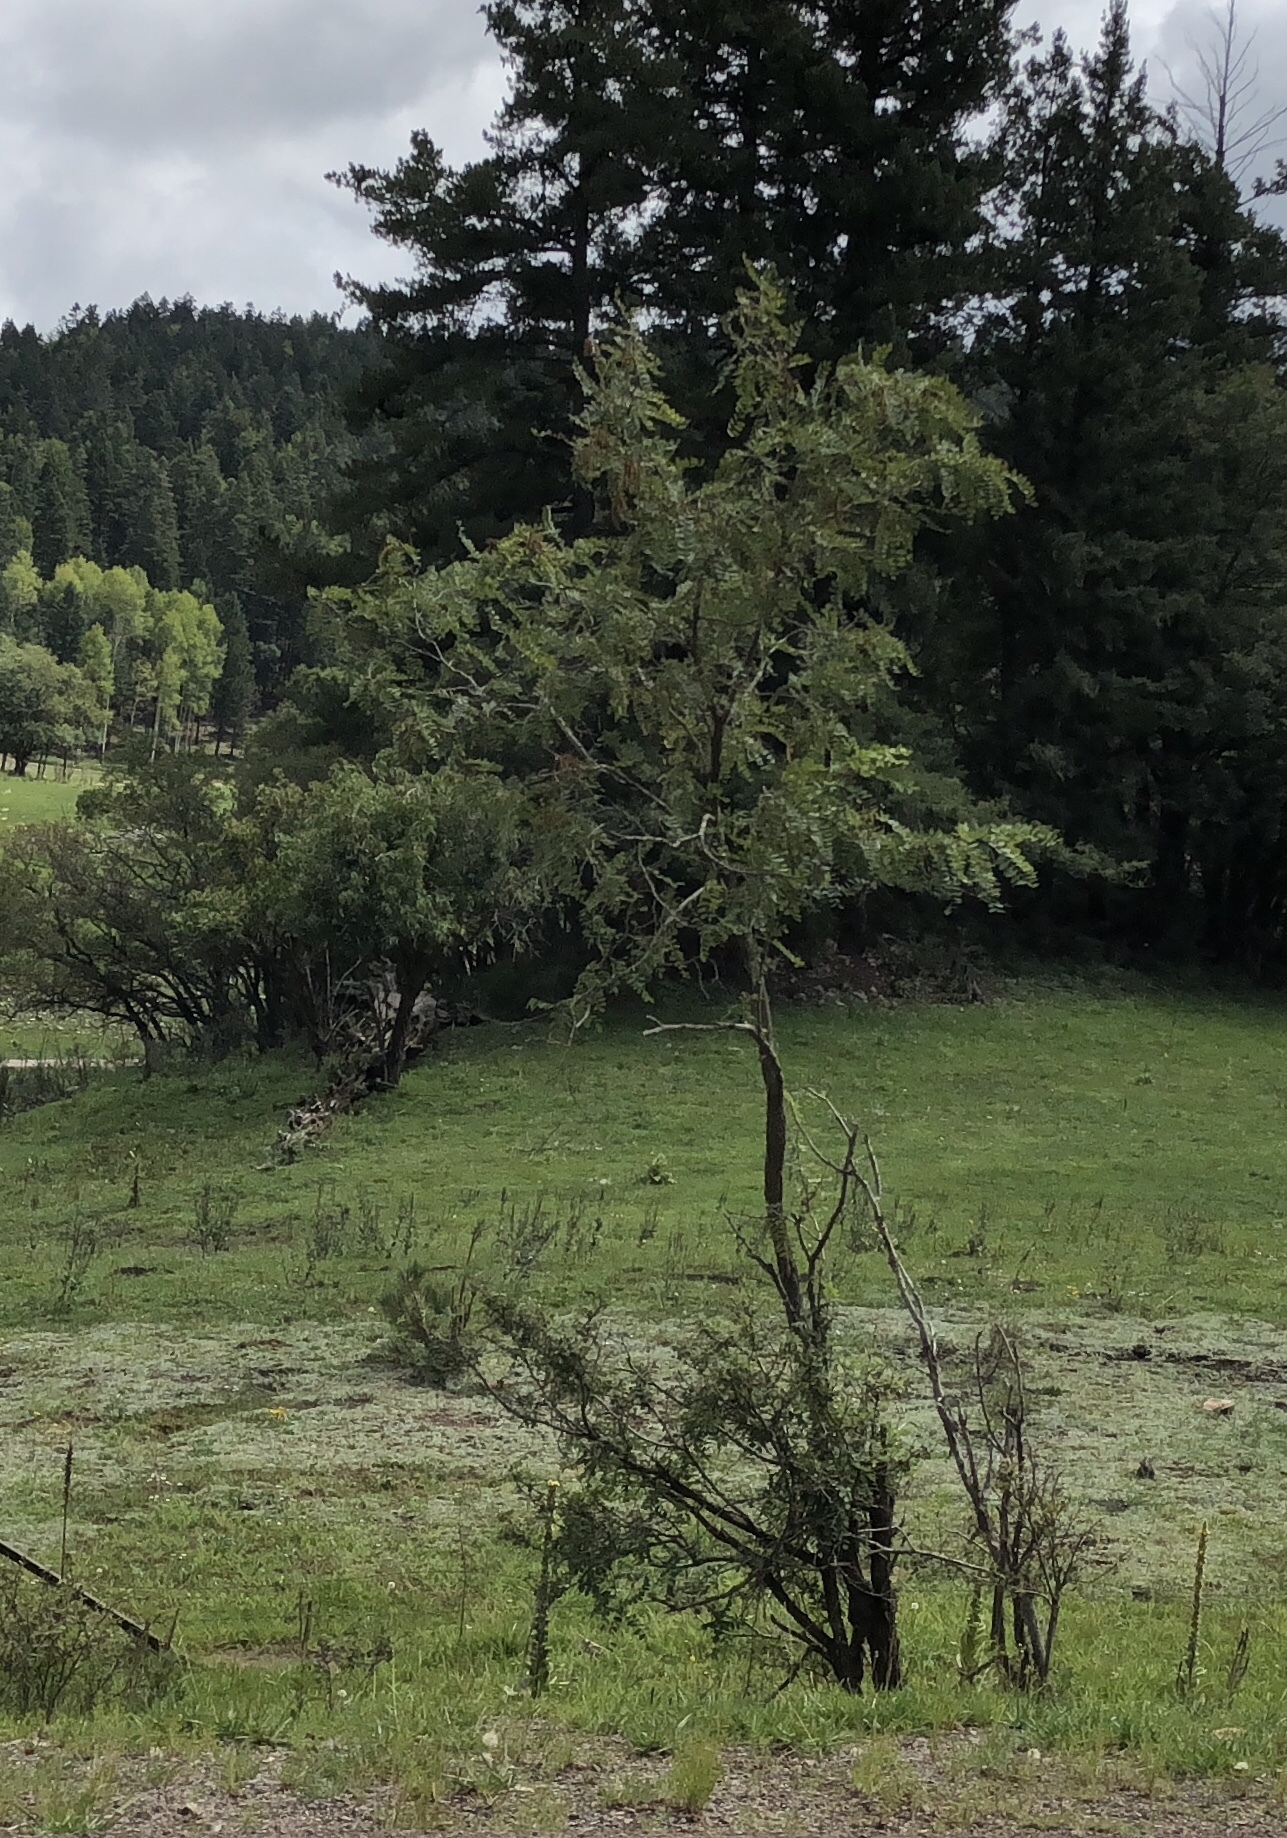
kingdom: Plantae
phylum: Tracheophyta
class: Magnoliopsida
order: Fabales
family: Fabaceae
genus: Robinia
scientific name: Robinia neomexicana
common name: New mexico locust
